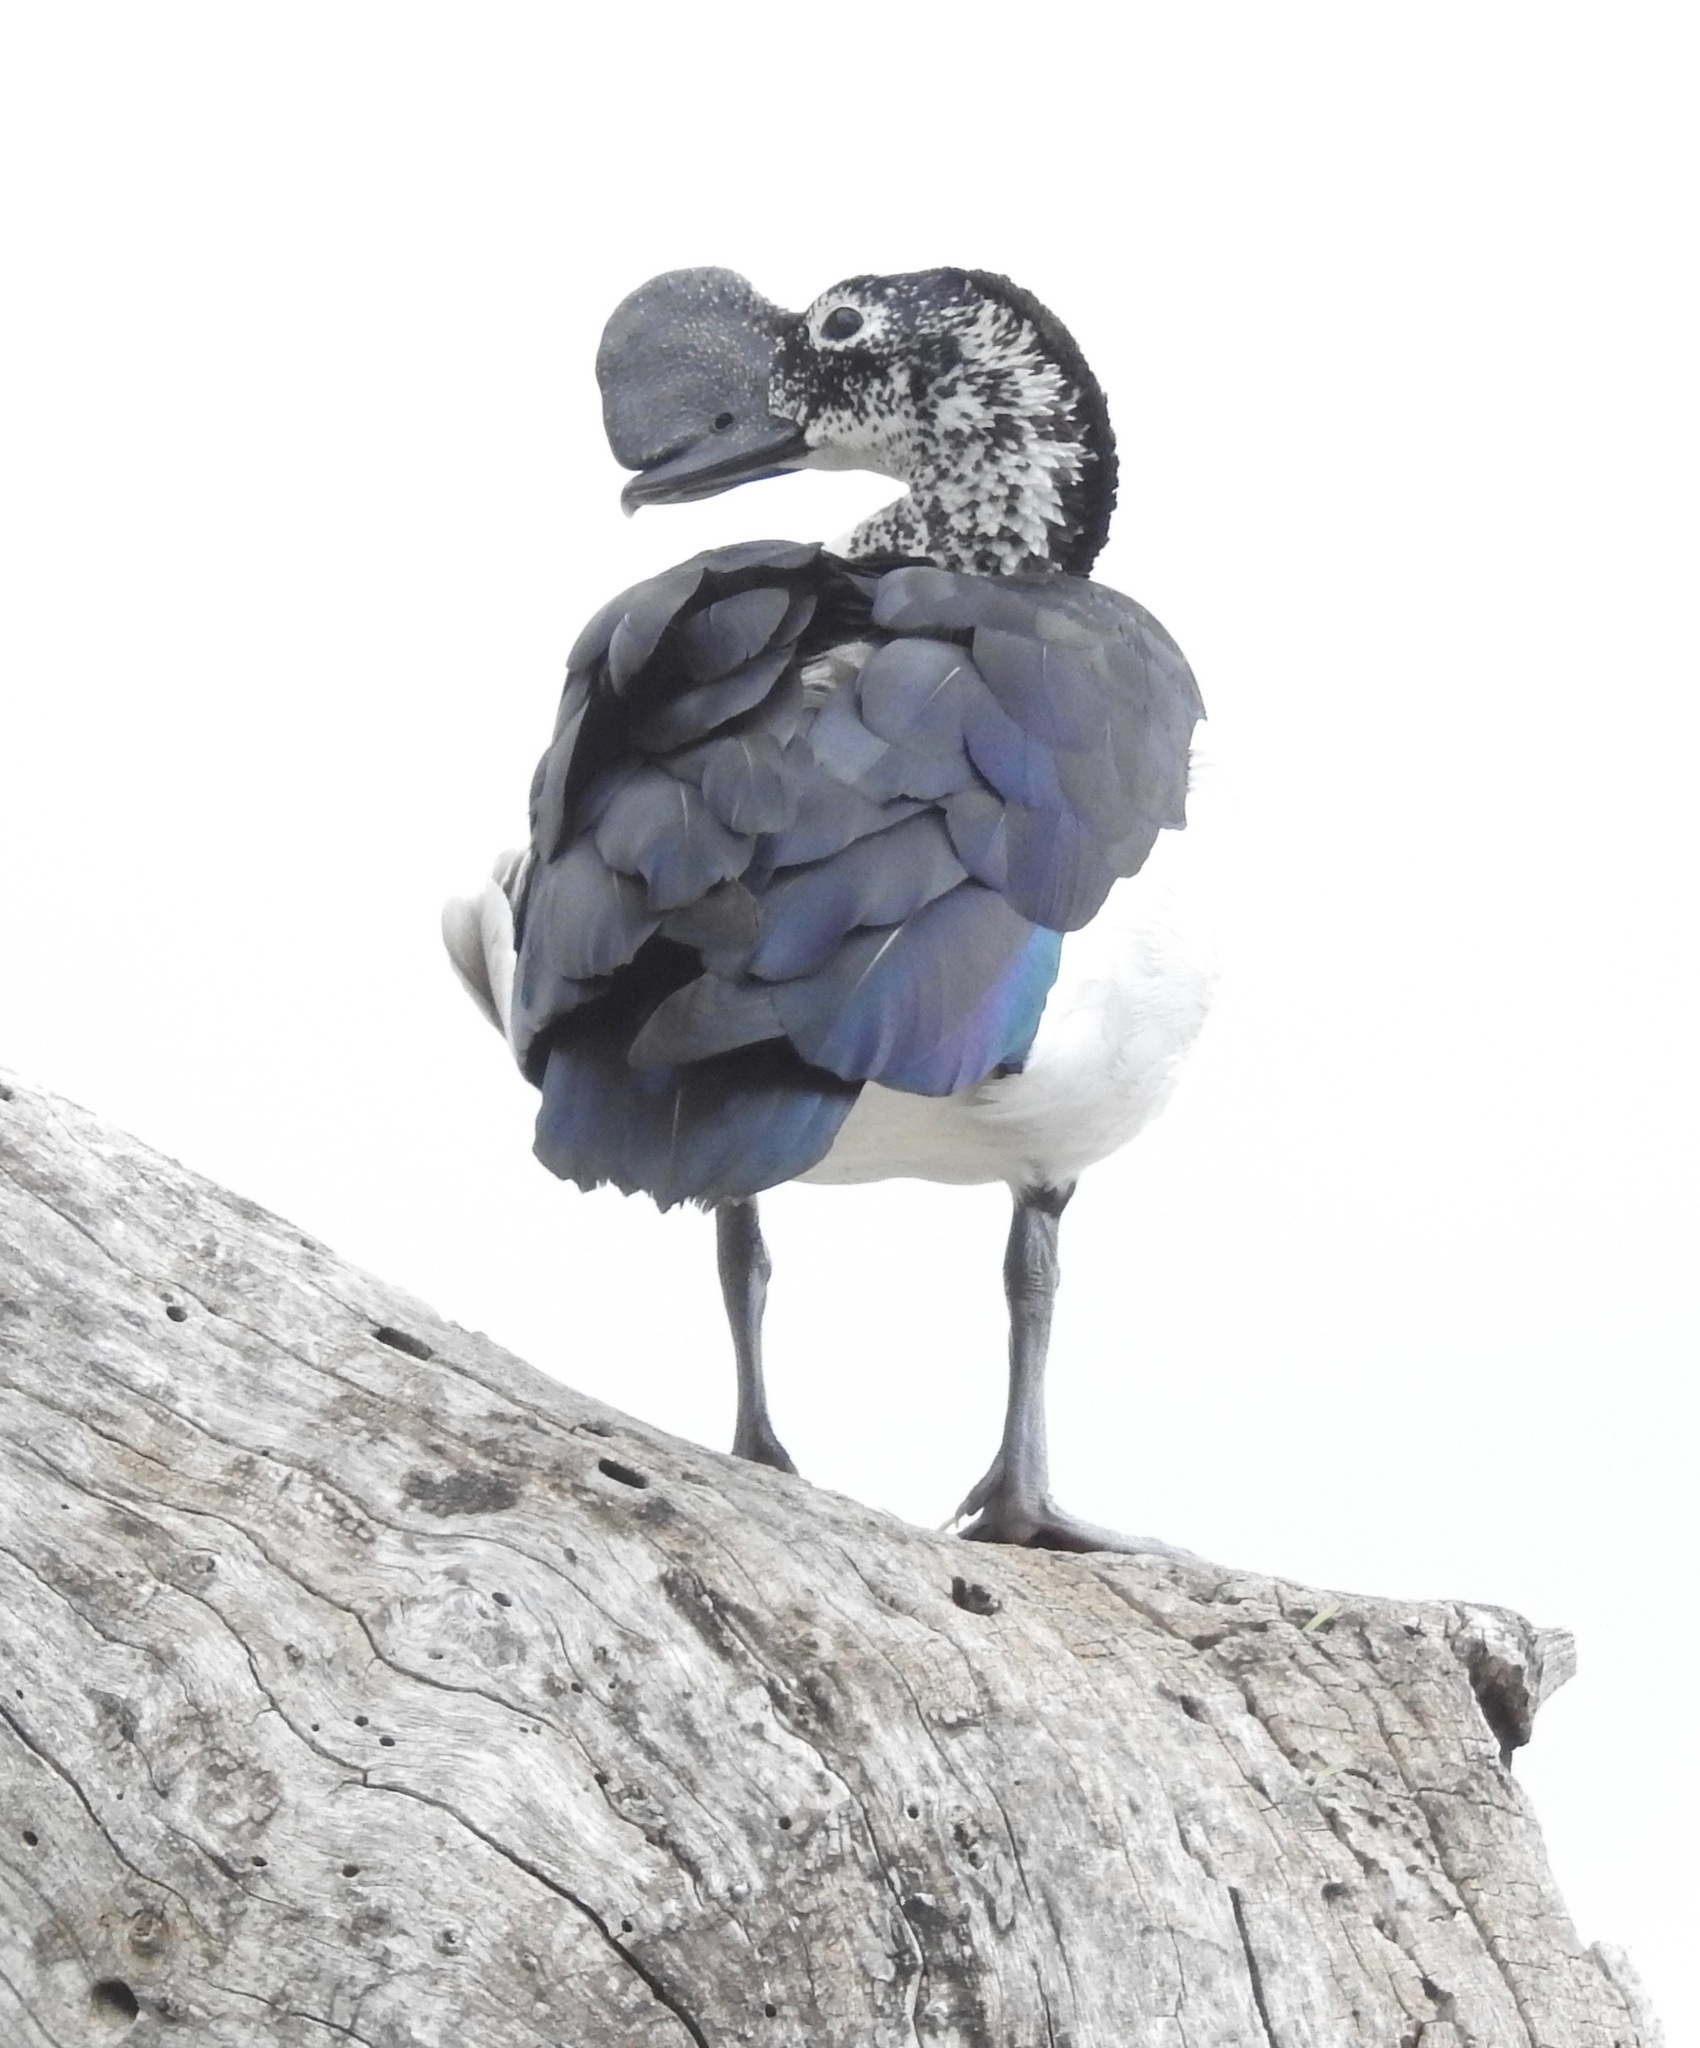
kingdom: Animalia
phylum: Chordata
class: Aves
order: Anseriformes
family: Anatidae
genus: Sarkidiornis
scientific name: Sarkidiornis melanotos
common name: Comb duck
